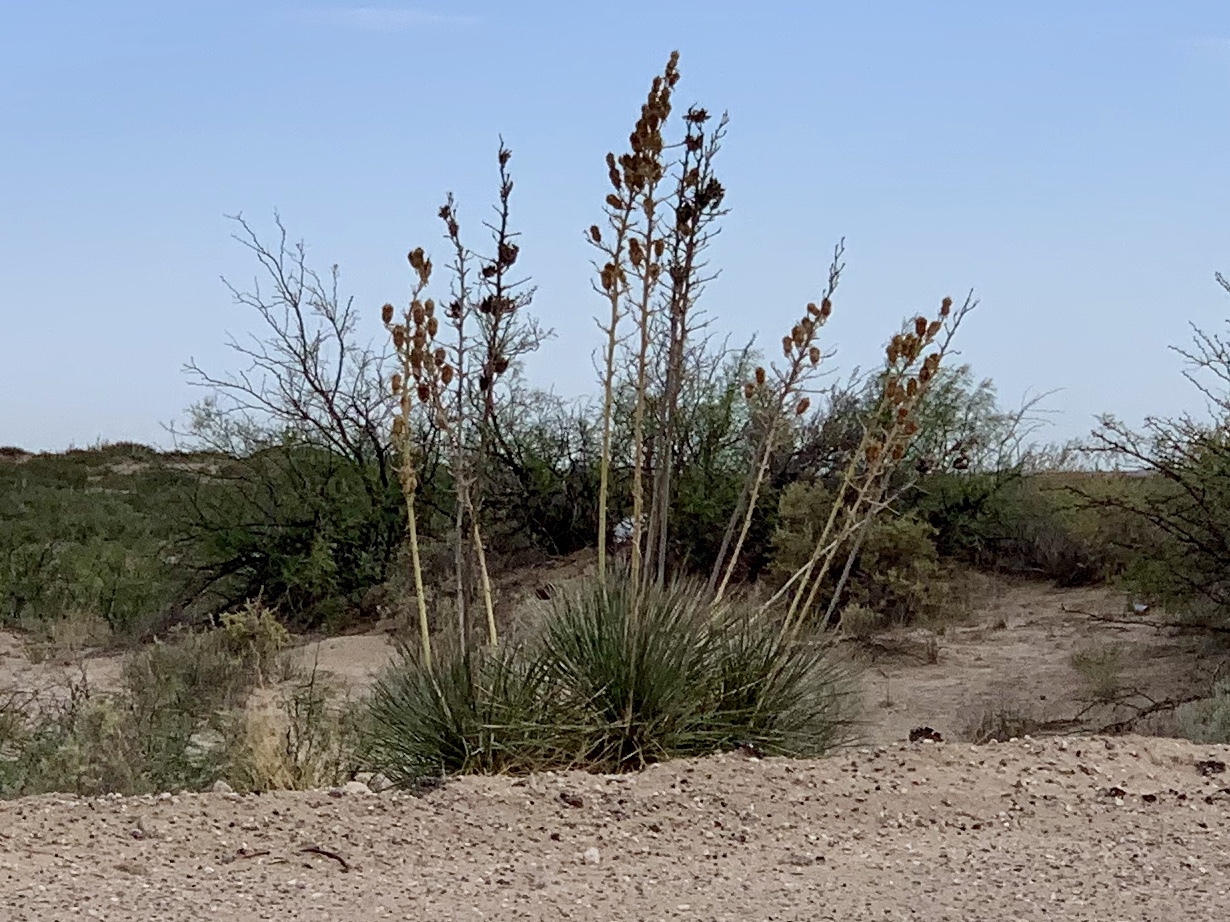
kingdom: Plantae
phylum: Tracheophyta
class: Liliopsida
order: Asparagales
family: Asparagaceae
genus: Yucca
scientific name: Yucca elata
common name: Palmella
